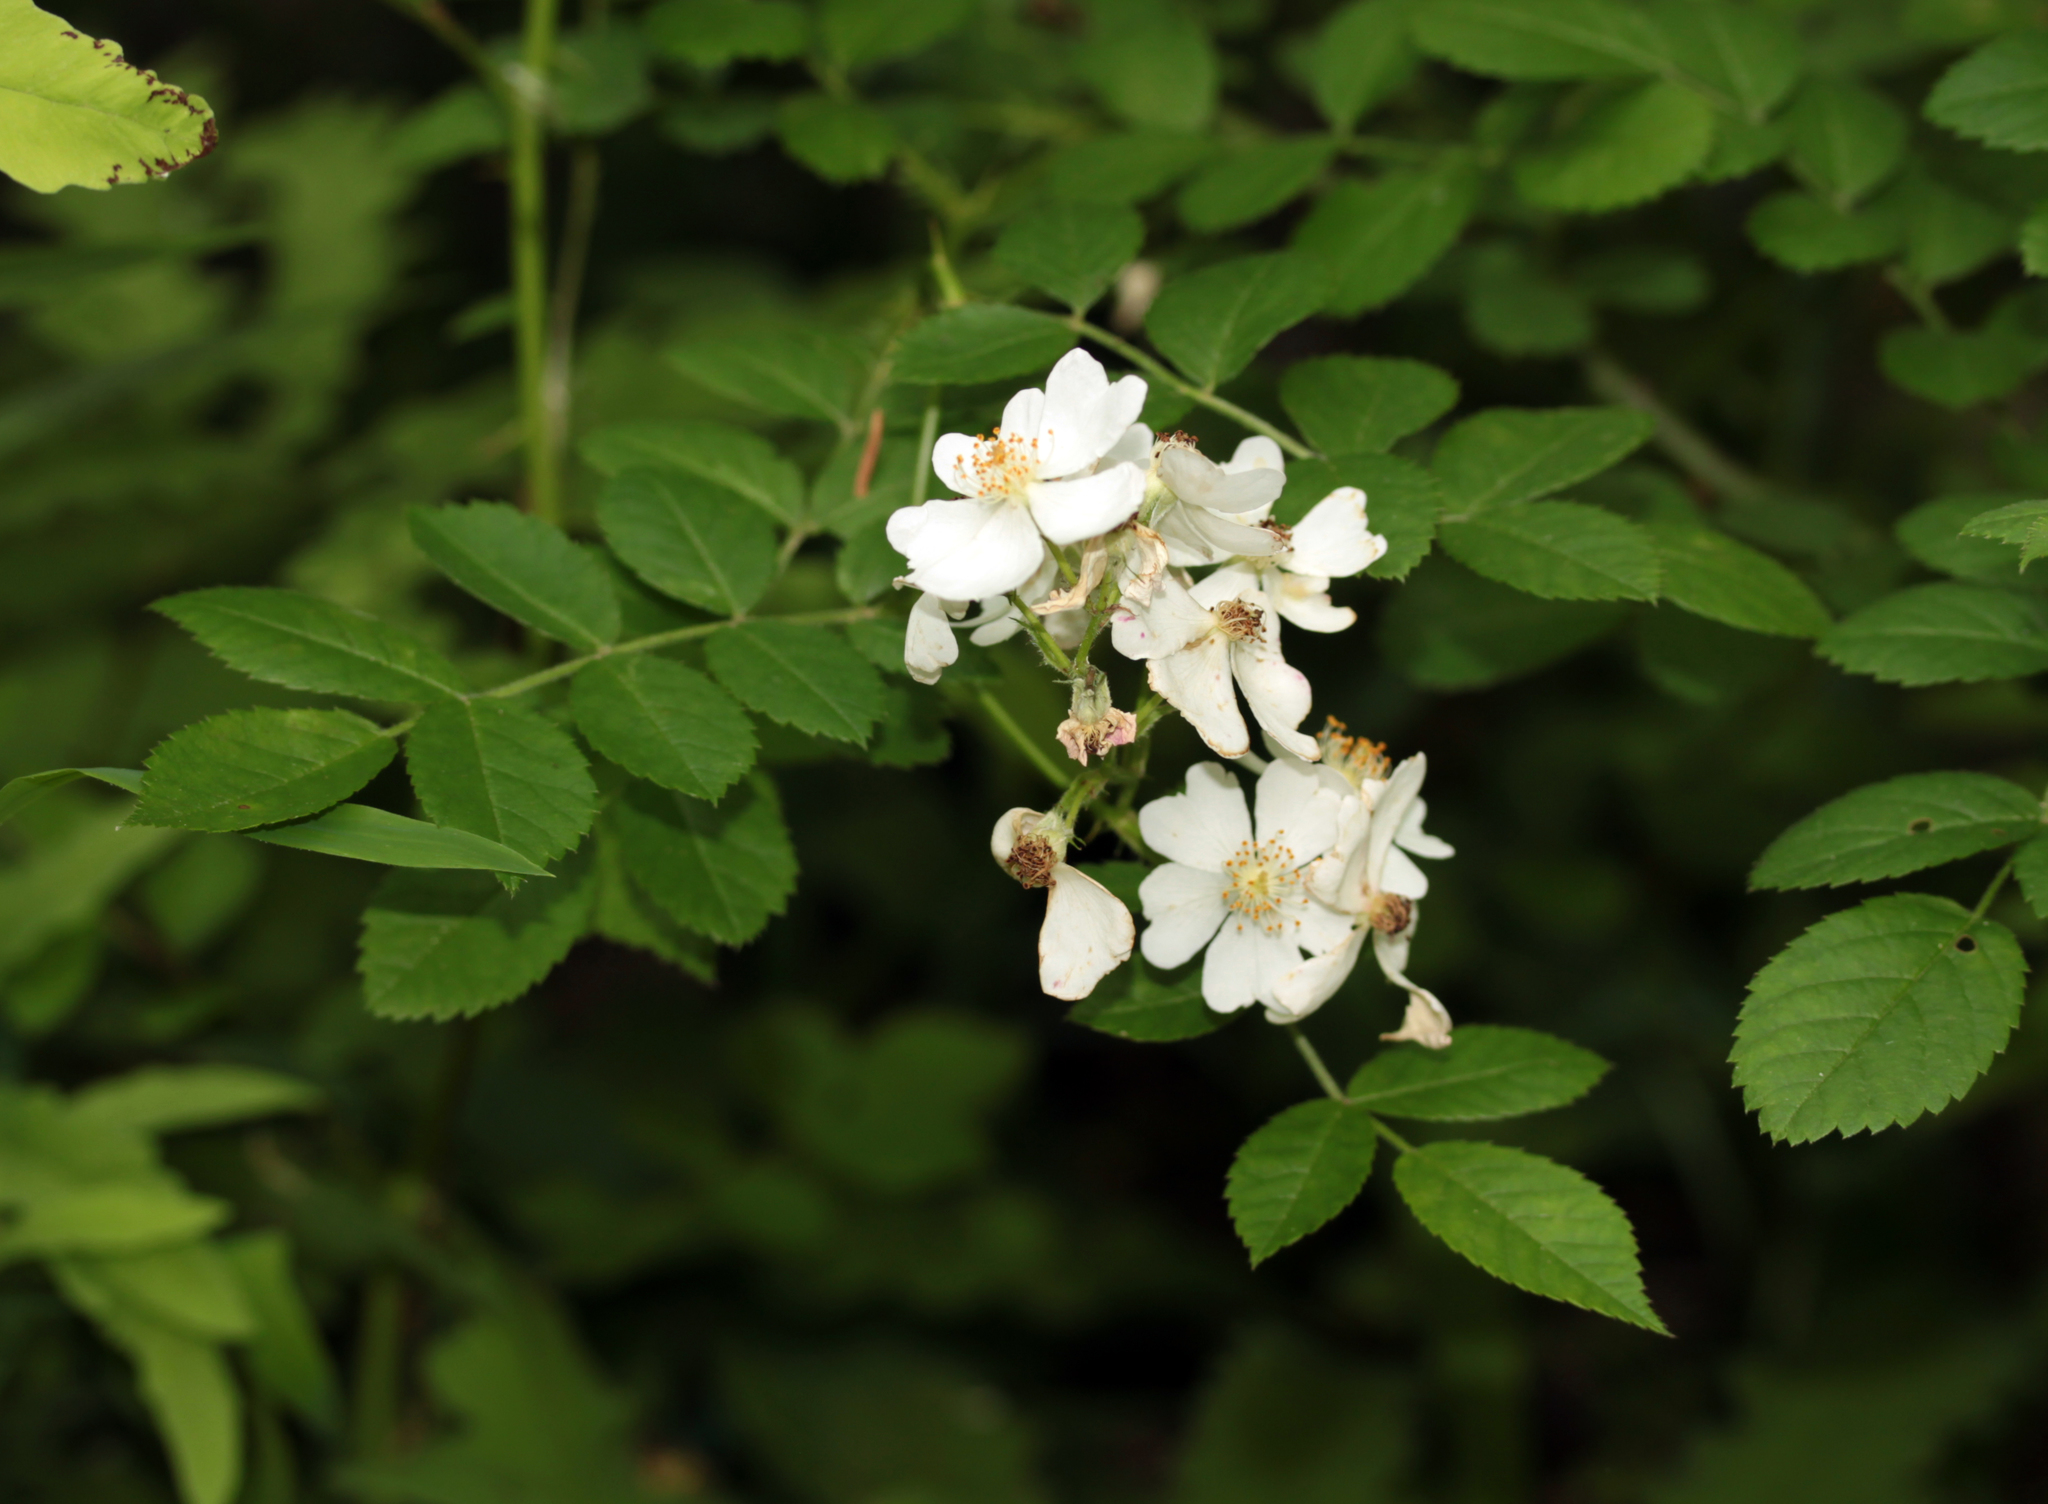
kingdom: Plantae
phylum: Tracheophyta
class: Magnoliopsida
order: Rosales
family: Rosaceae
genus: Rosa
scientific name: Rosa multiflora
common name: Multiflora rose
